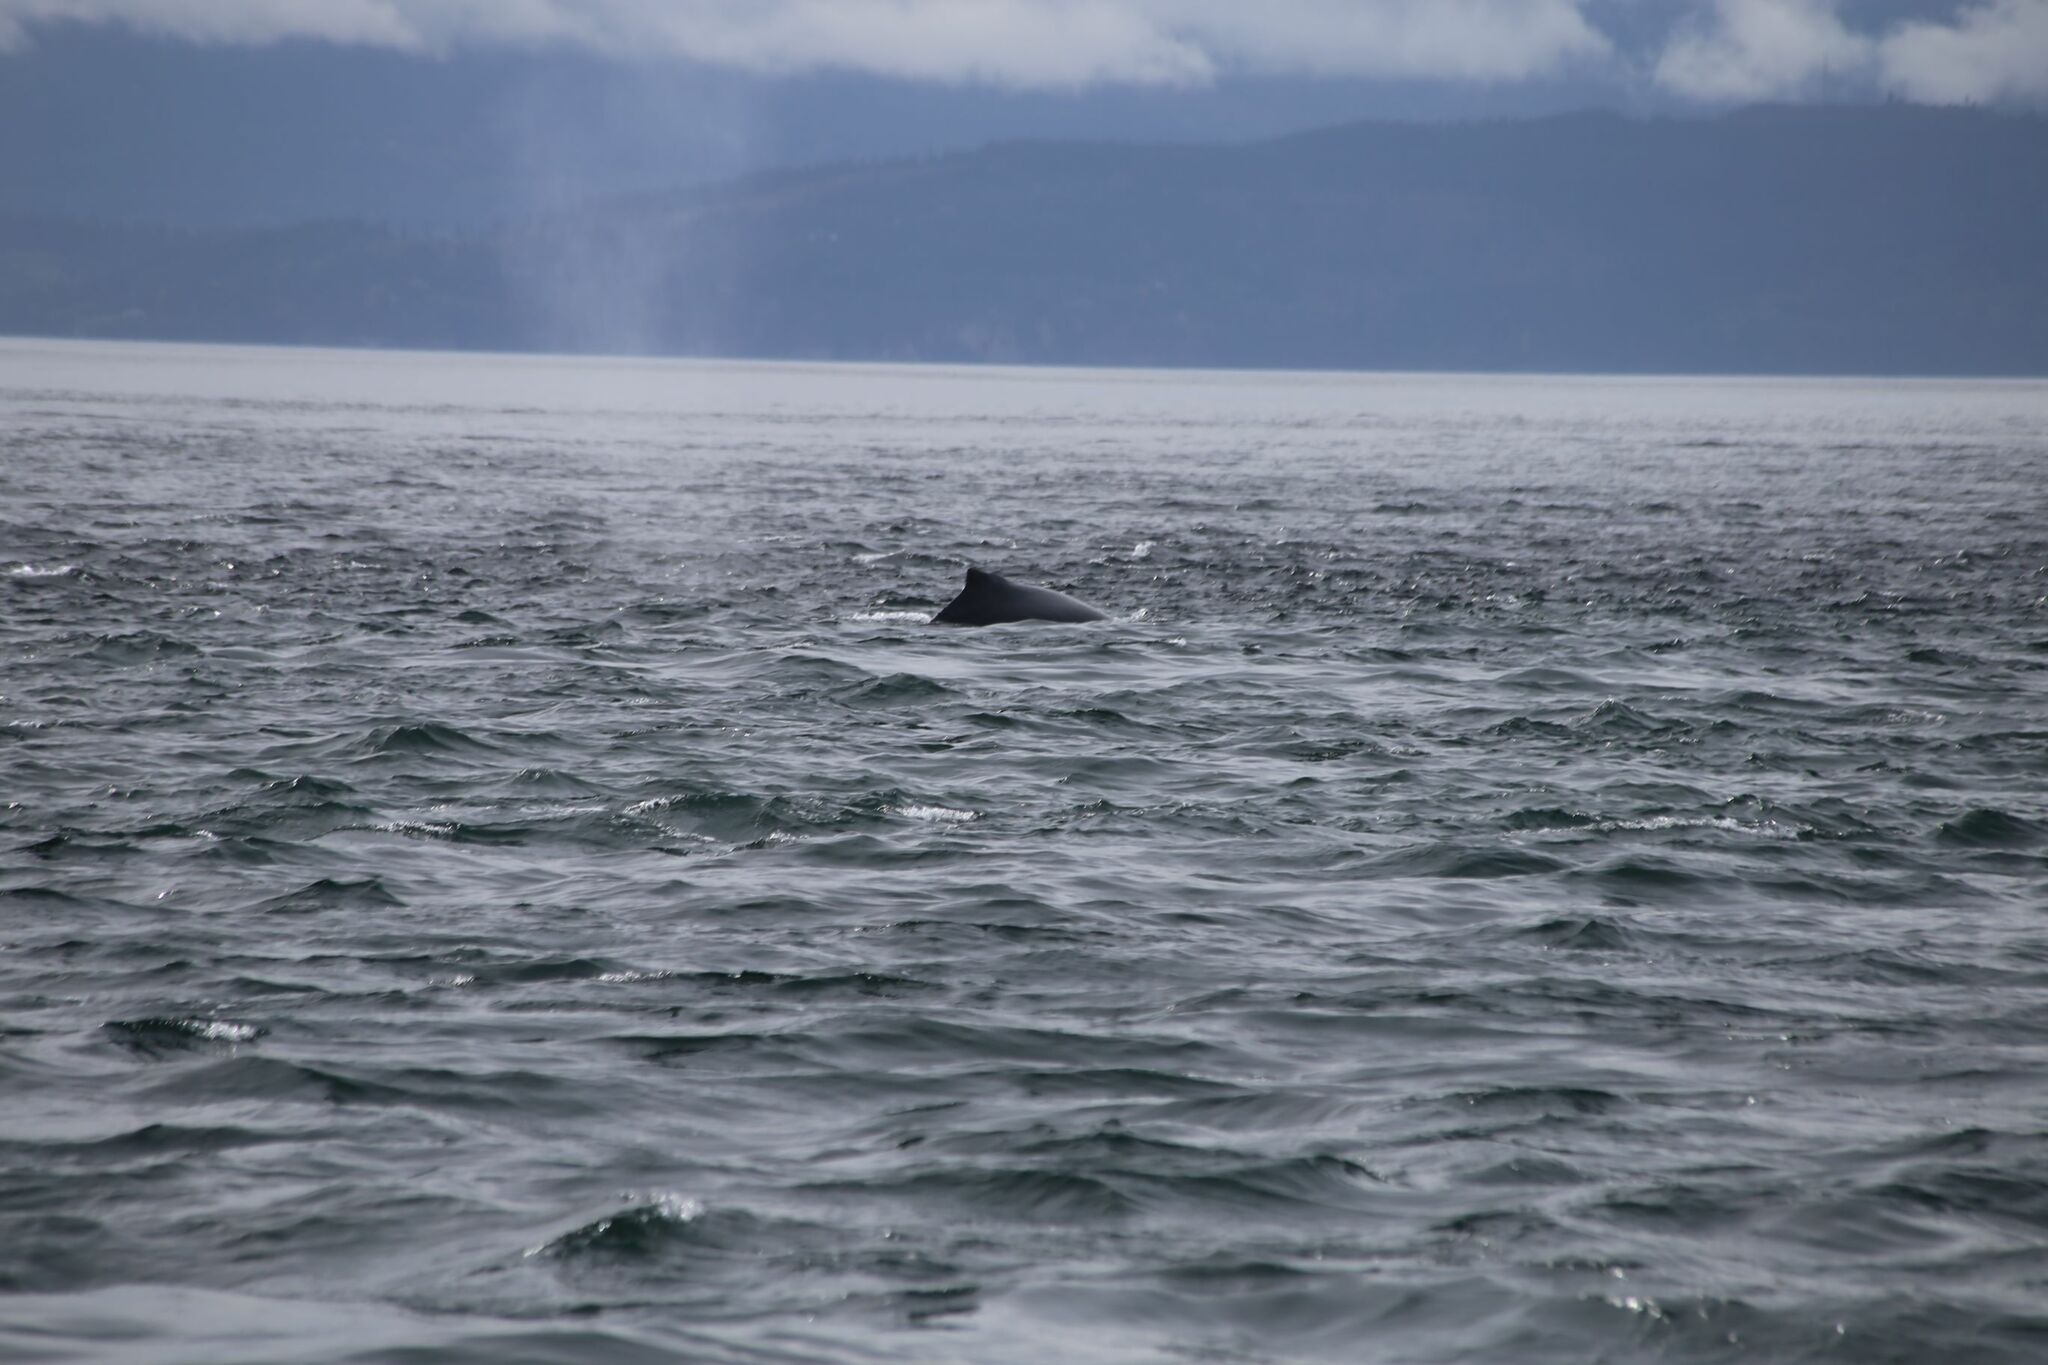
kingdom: Animalia
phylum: Chordata
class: Mammalia
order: Cetacea
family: Balaenopteridae
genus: Megaptera
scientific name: Megaptera novaeangliae
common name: Humpback whale
